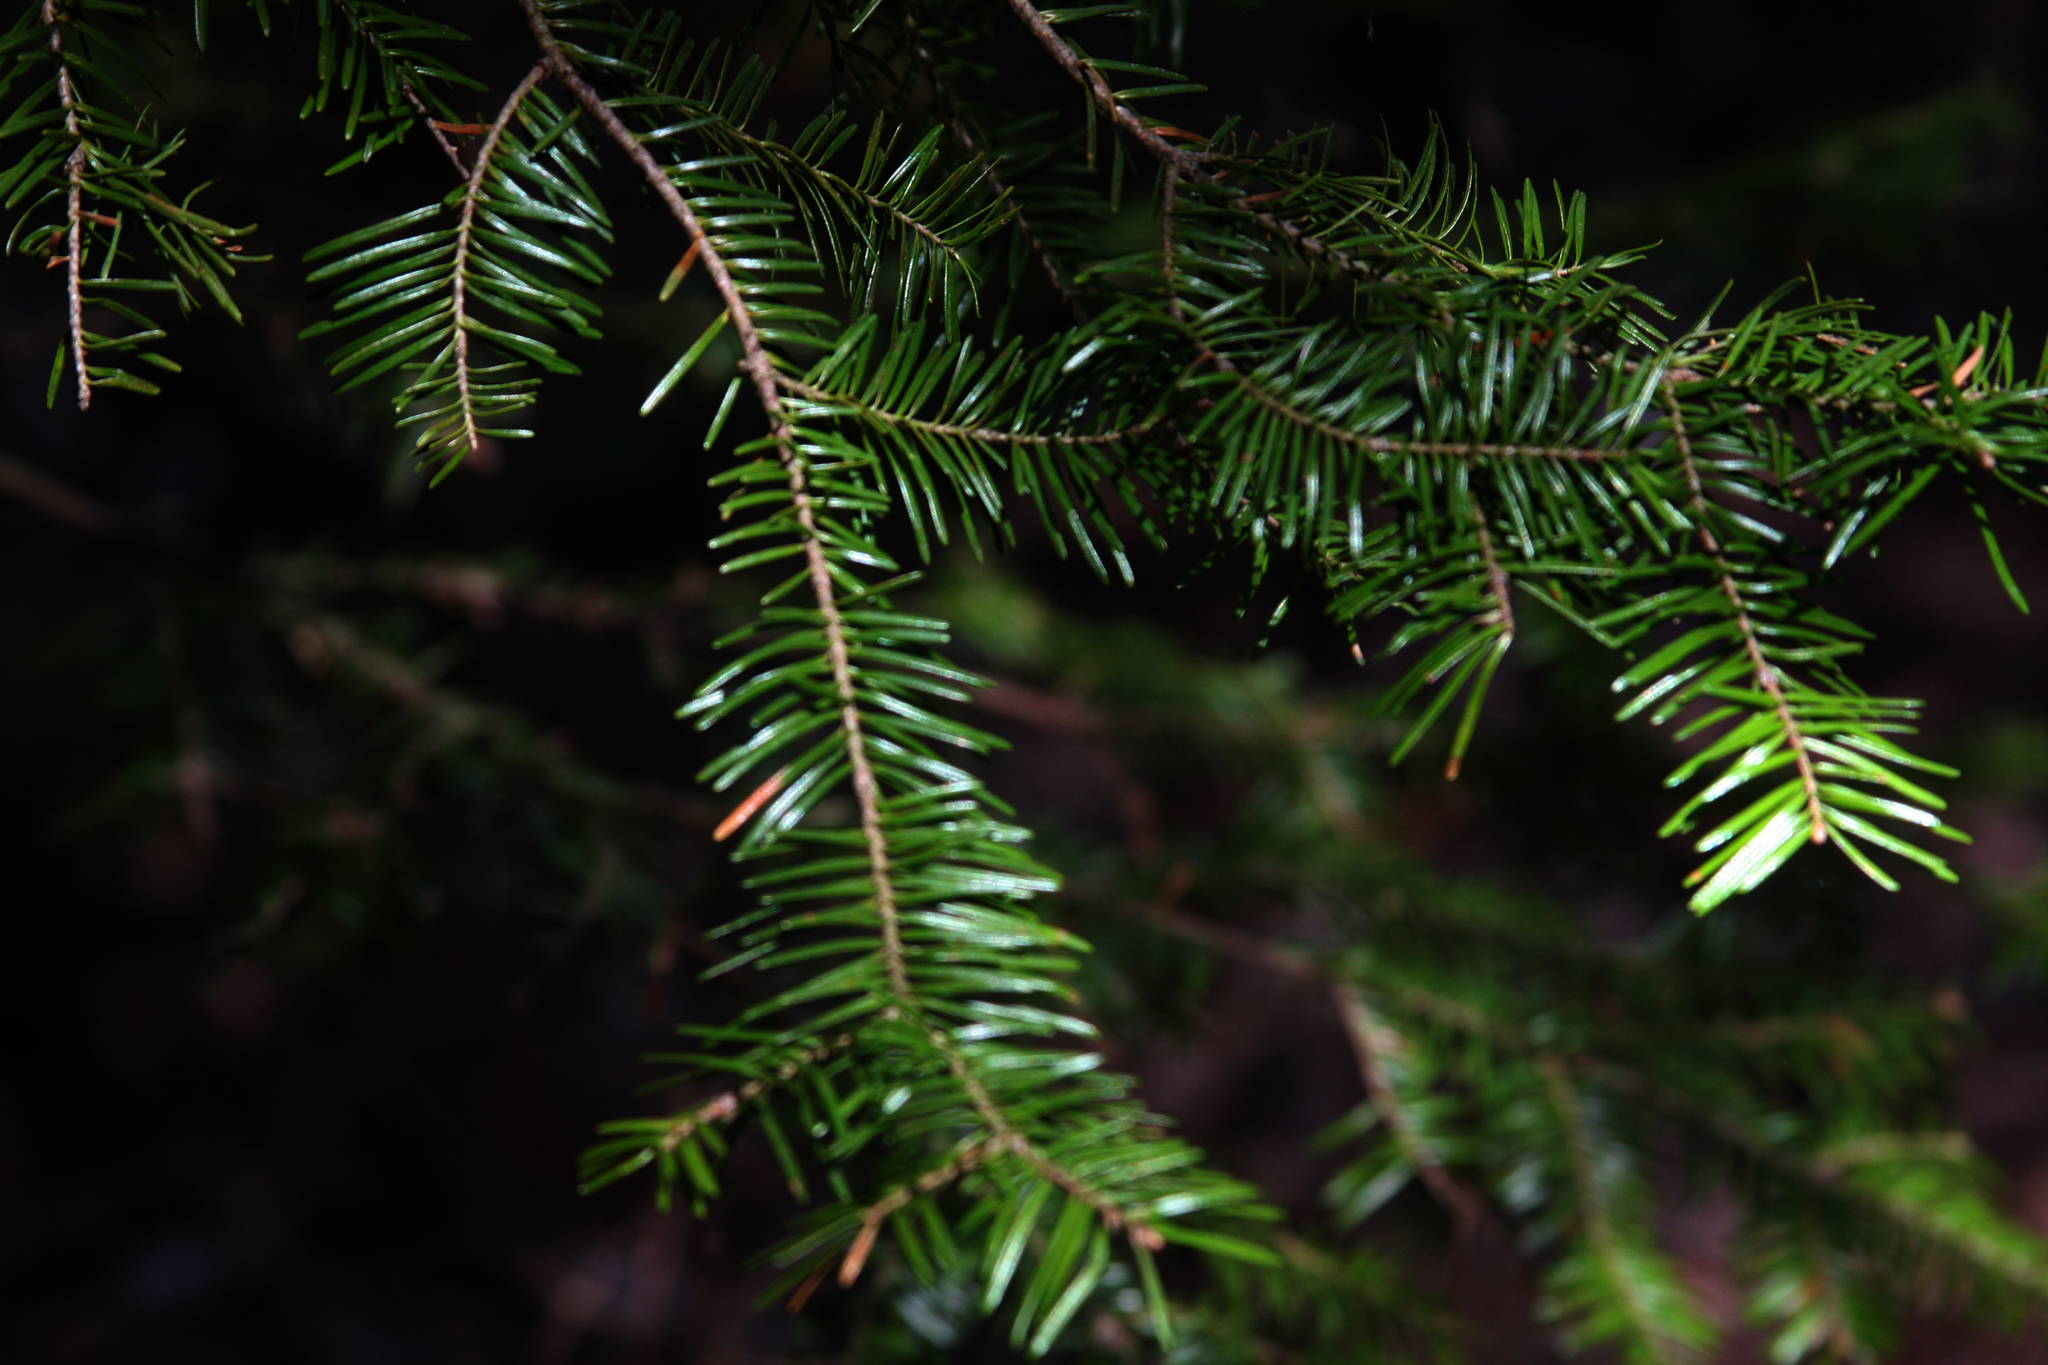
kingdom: Plantae
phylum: Tracheophyta
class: Pinopsida
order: Pinales
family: Pinaceae
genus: Abies
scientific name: Abies balsamea
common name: Balsam fir
